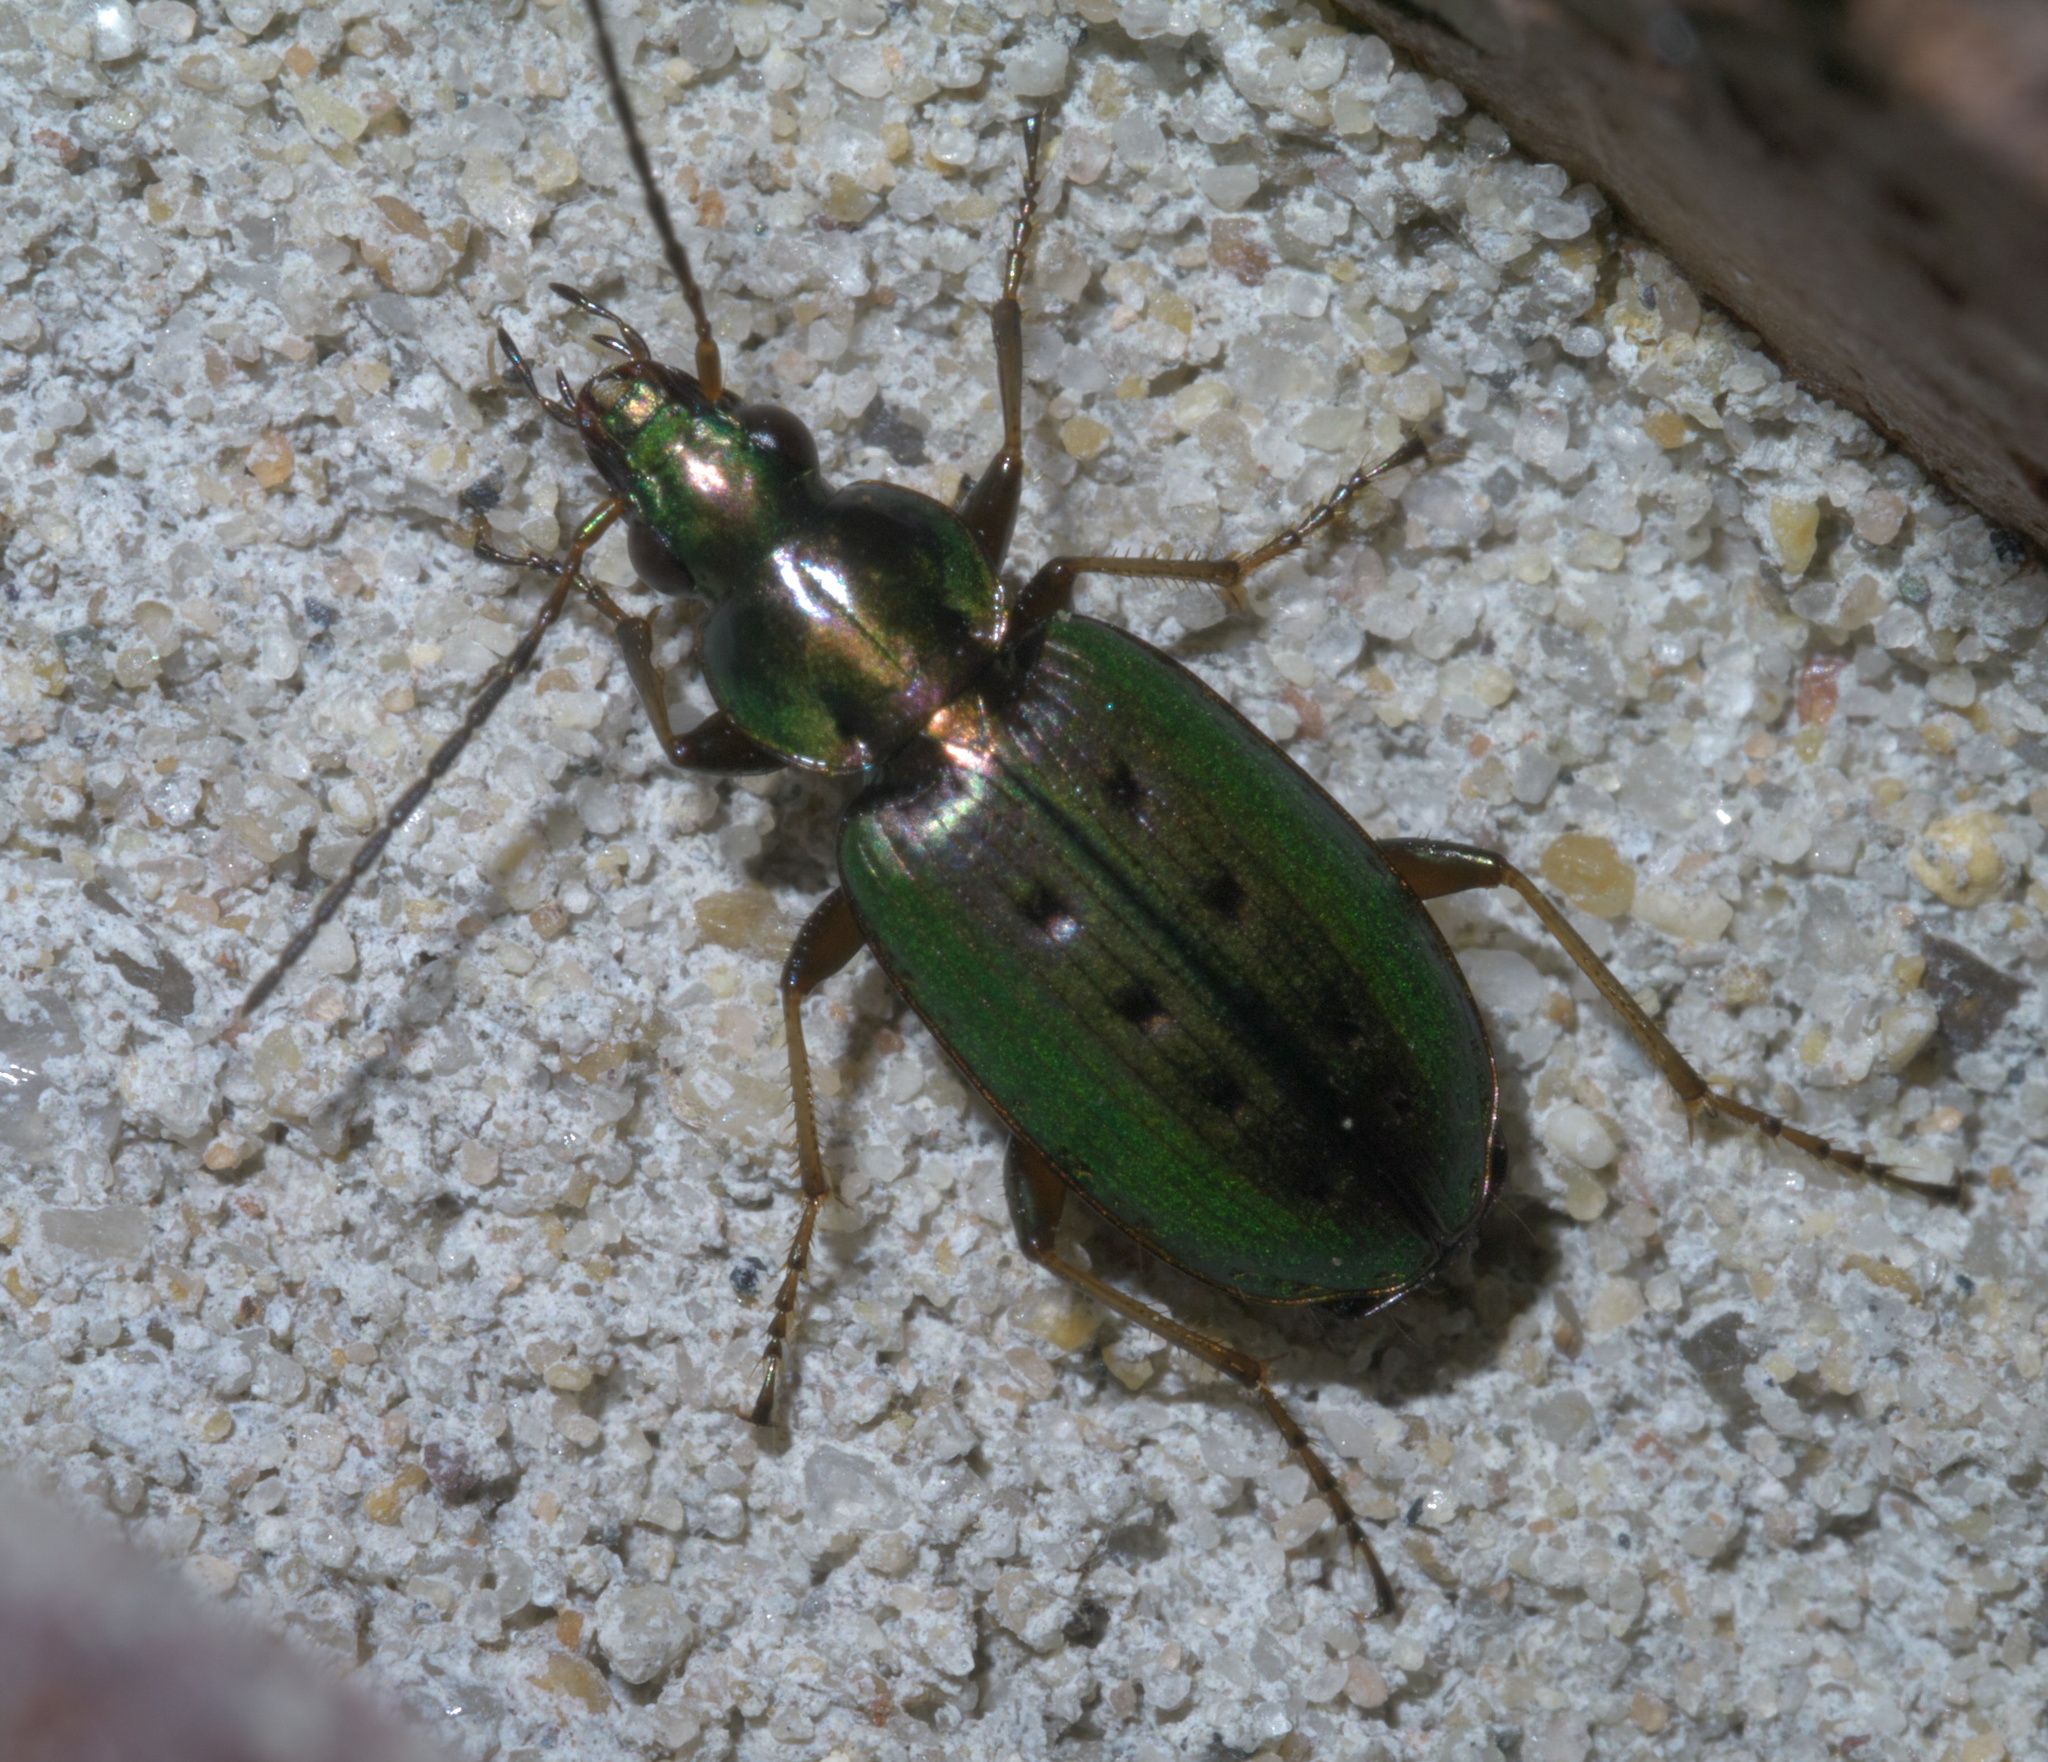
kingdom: Animalia
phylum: Arthropoda
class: Insecta
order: Coleoptera
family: Carabidae
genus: Agonum
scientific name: Agonum octopunctatum
